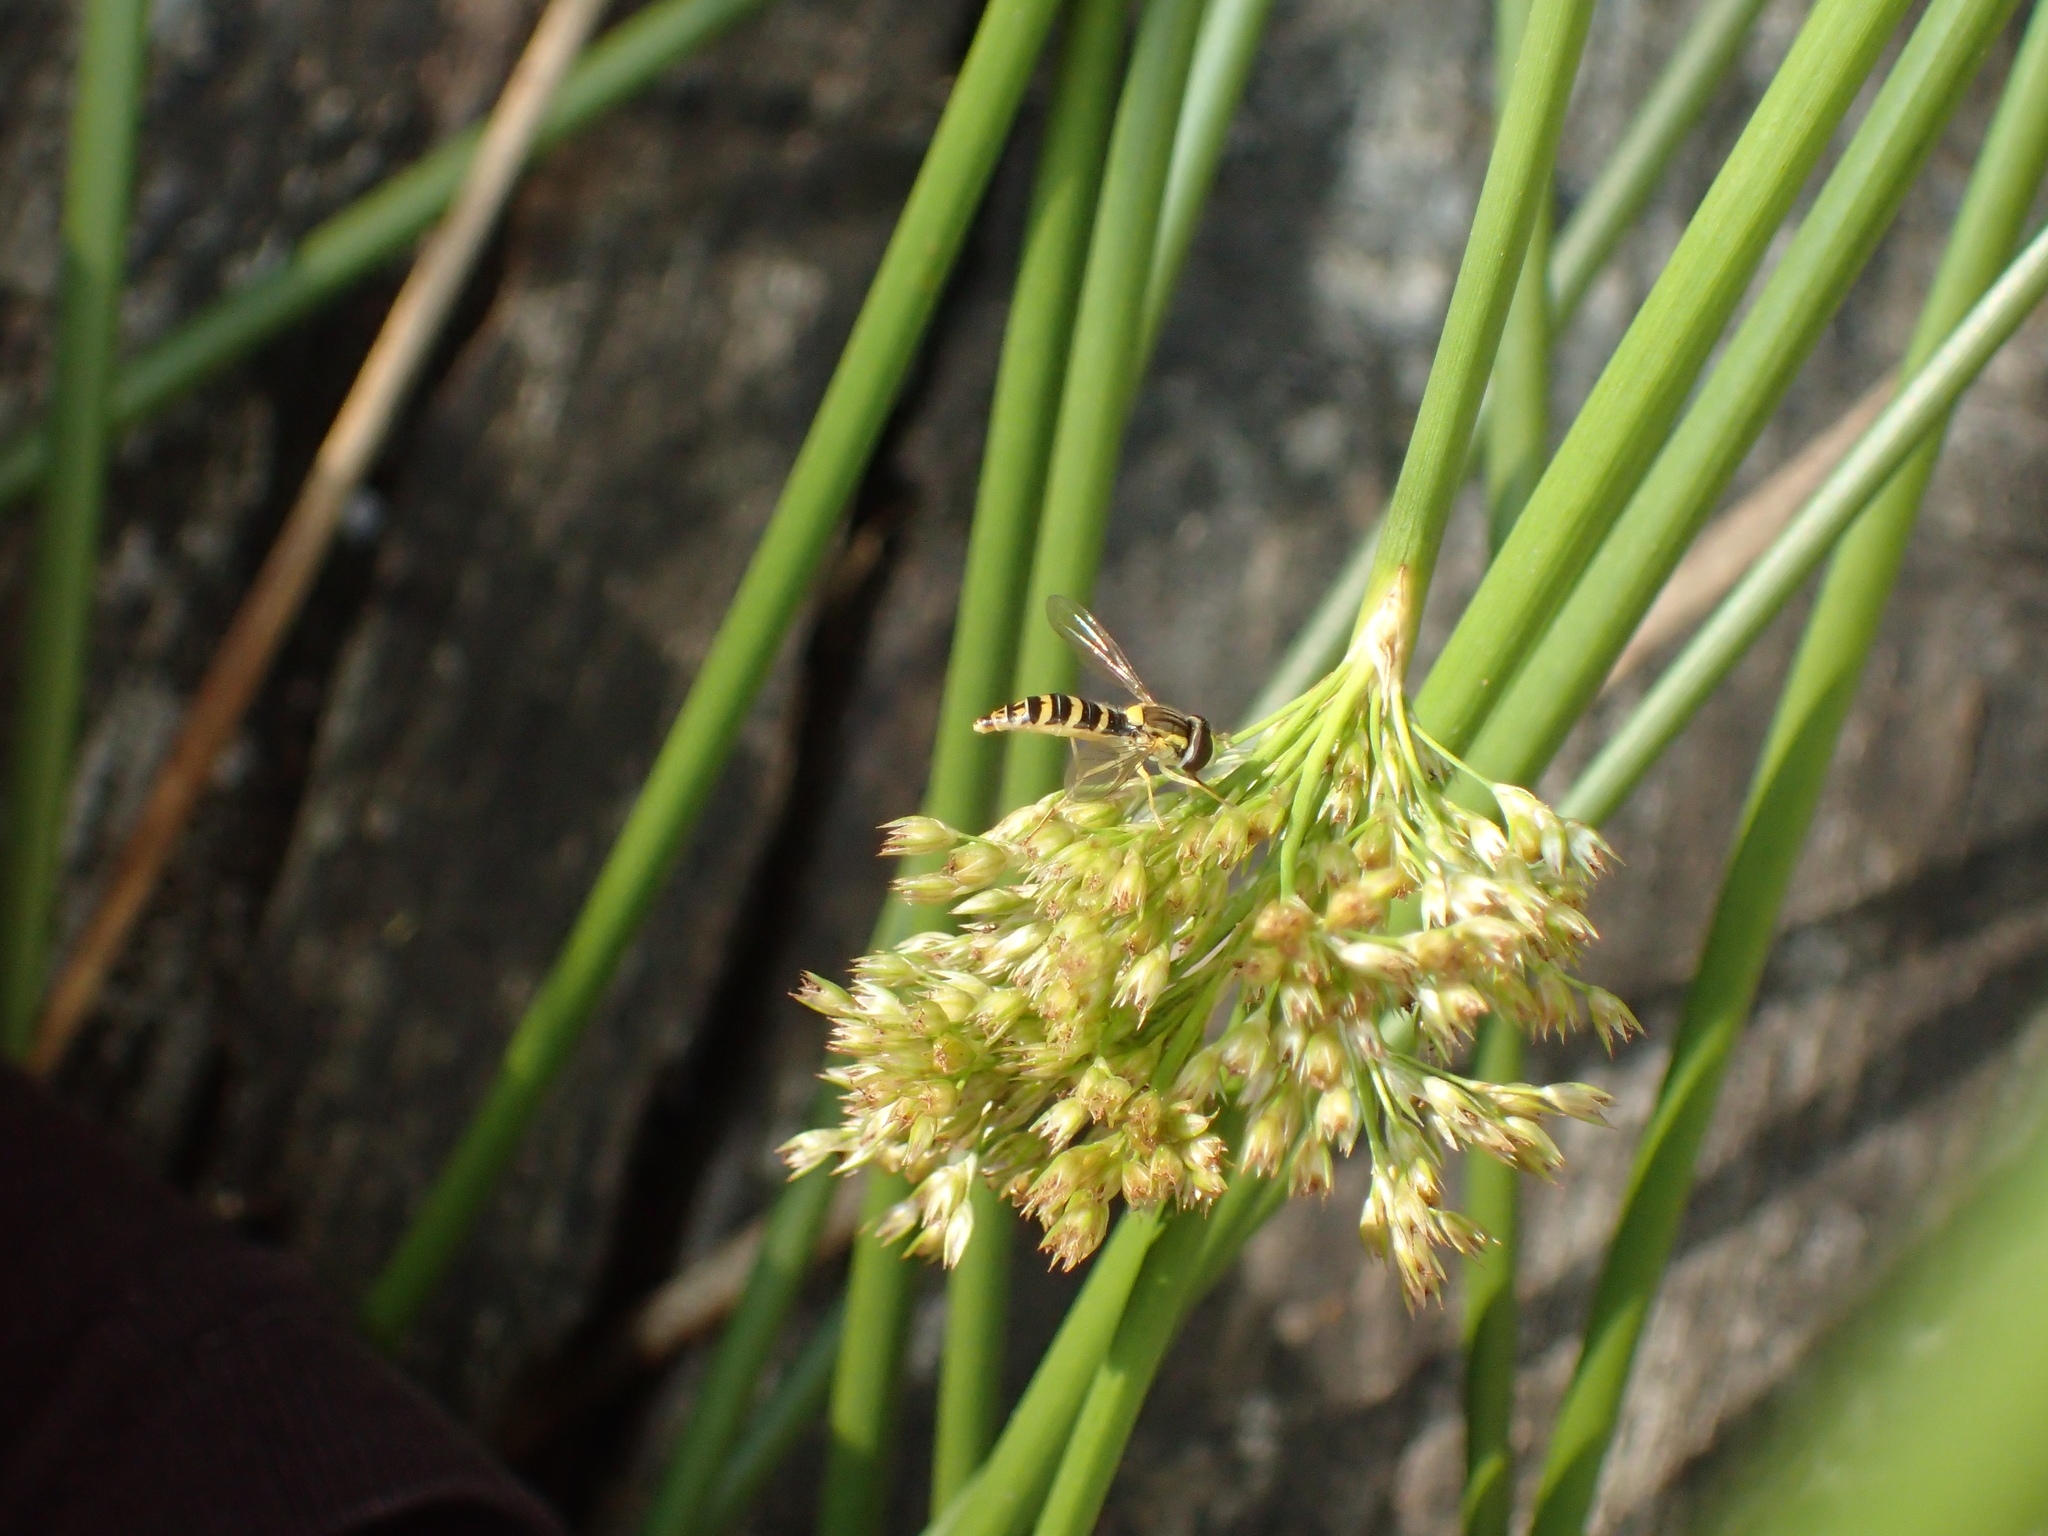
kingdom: Animalia
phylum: Arthropoda
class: Insecta
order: Diptera
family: Syrphidae
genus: Sphaerophoria
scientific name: Sphaerophoria
